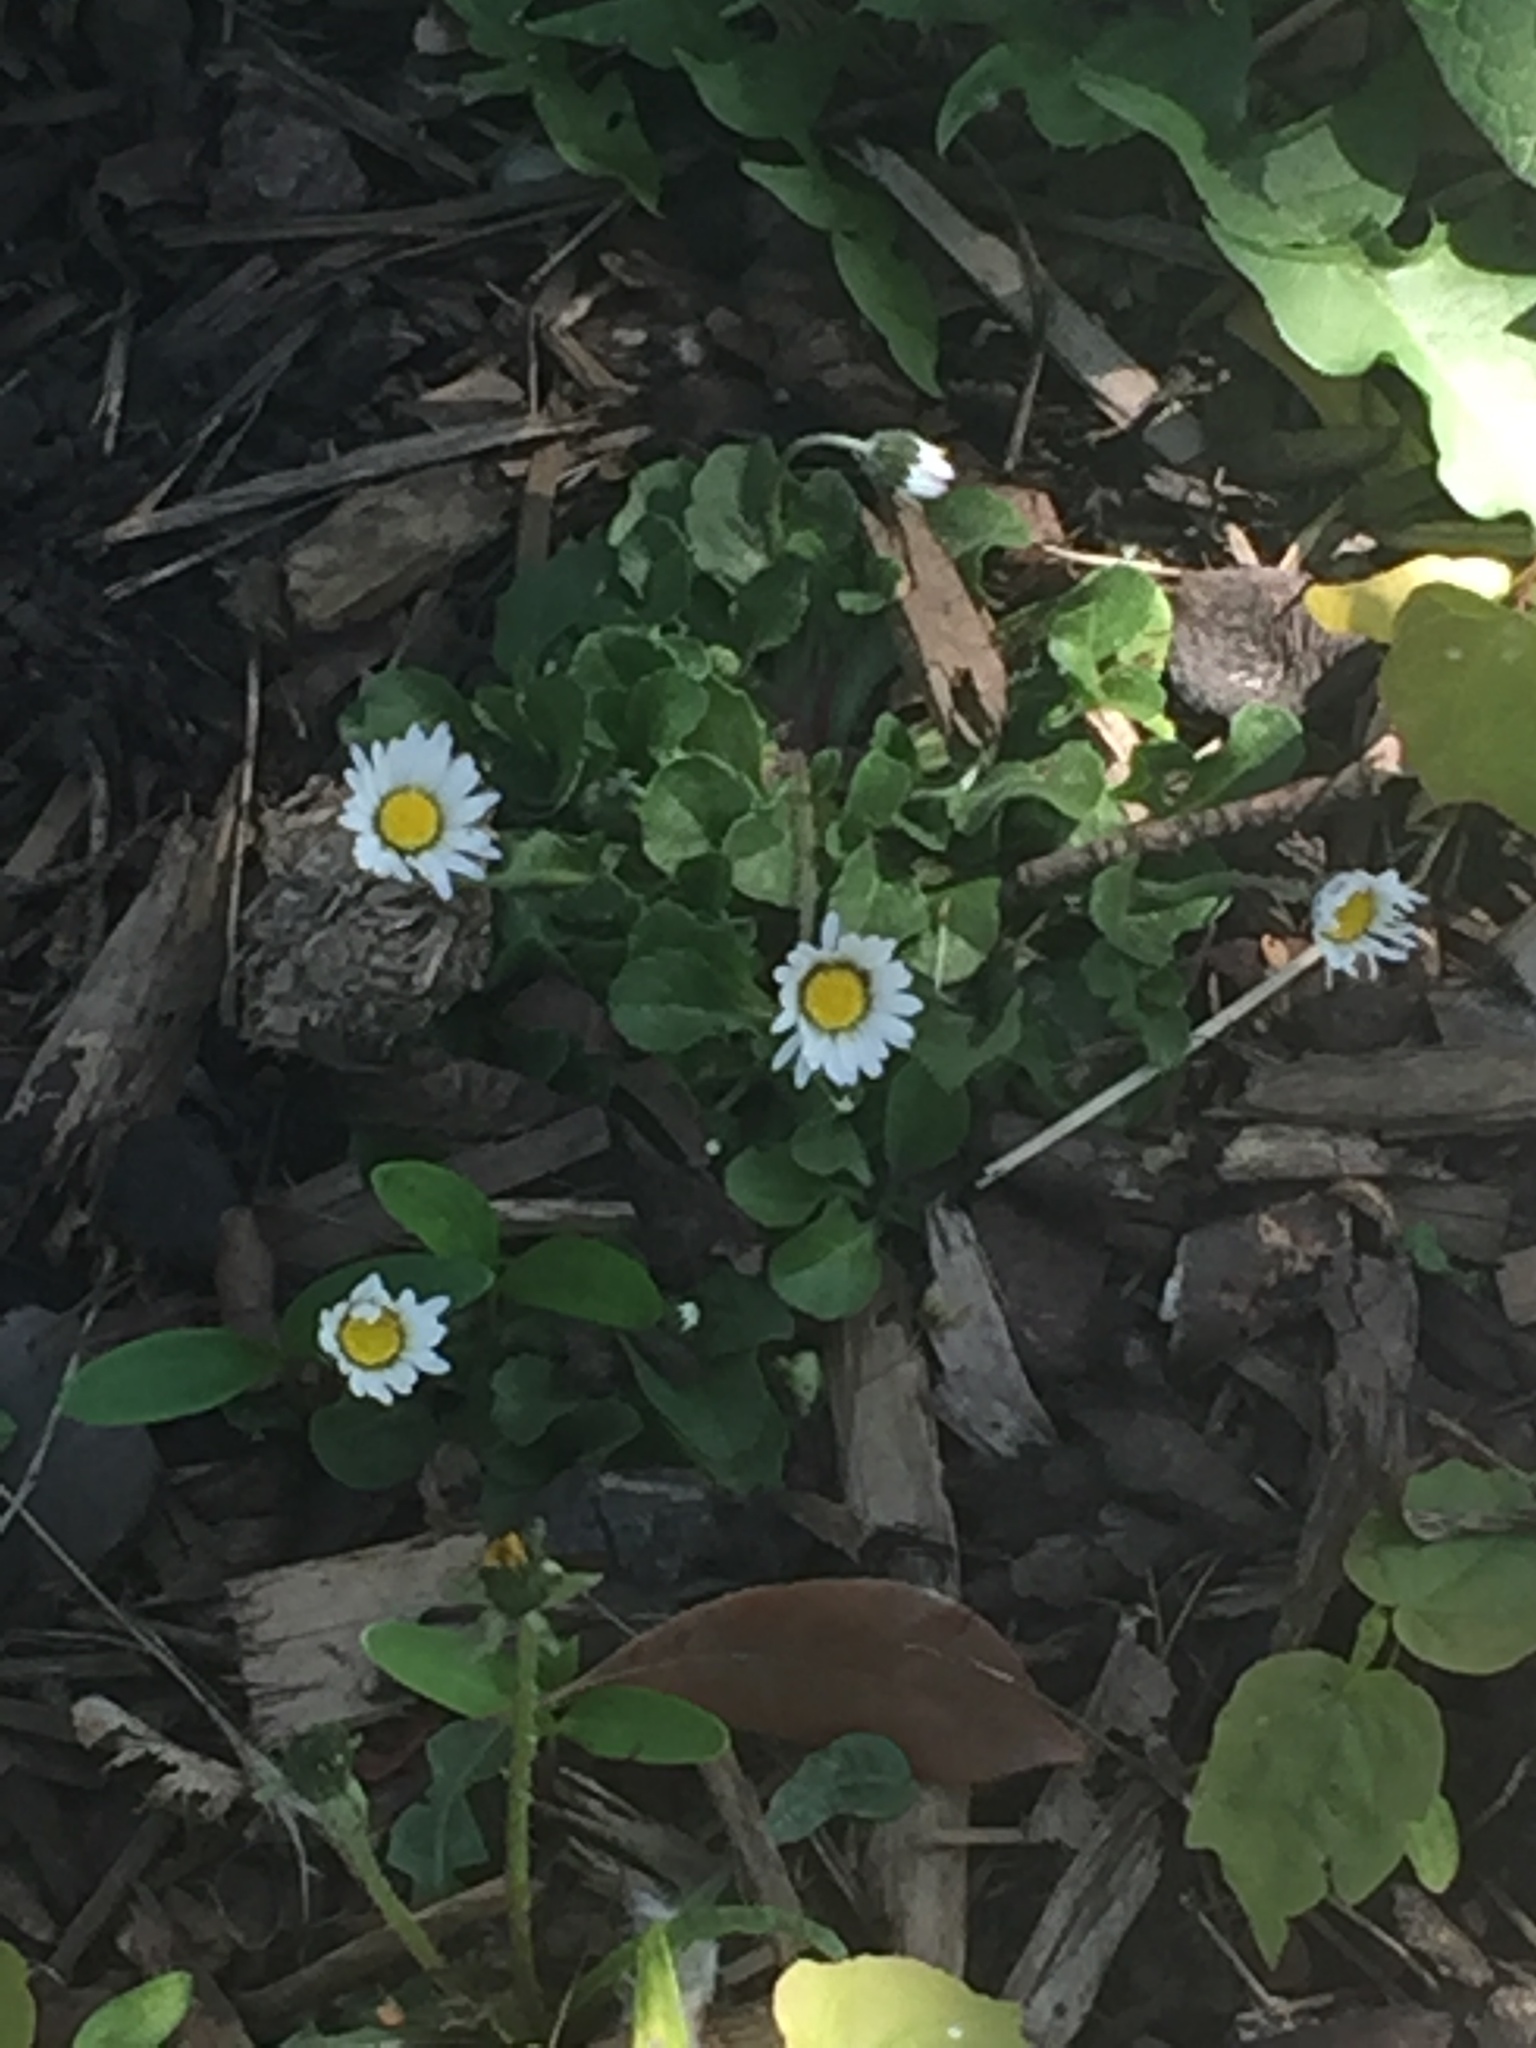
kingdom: Plantae
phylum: Tracheophyta
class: Magnoliopsida
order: Asterales
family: Asteraceae
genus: Bellis
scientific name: Bellis perennis
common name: Lawndaisy
